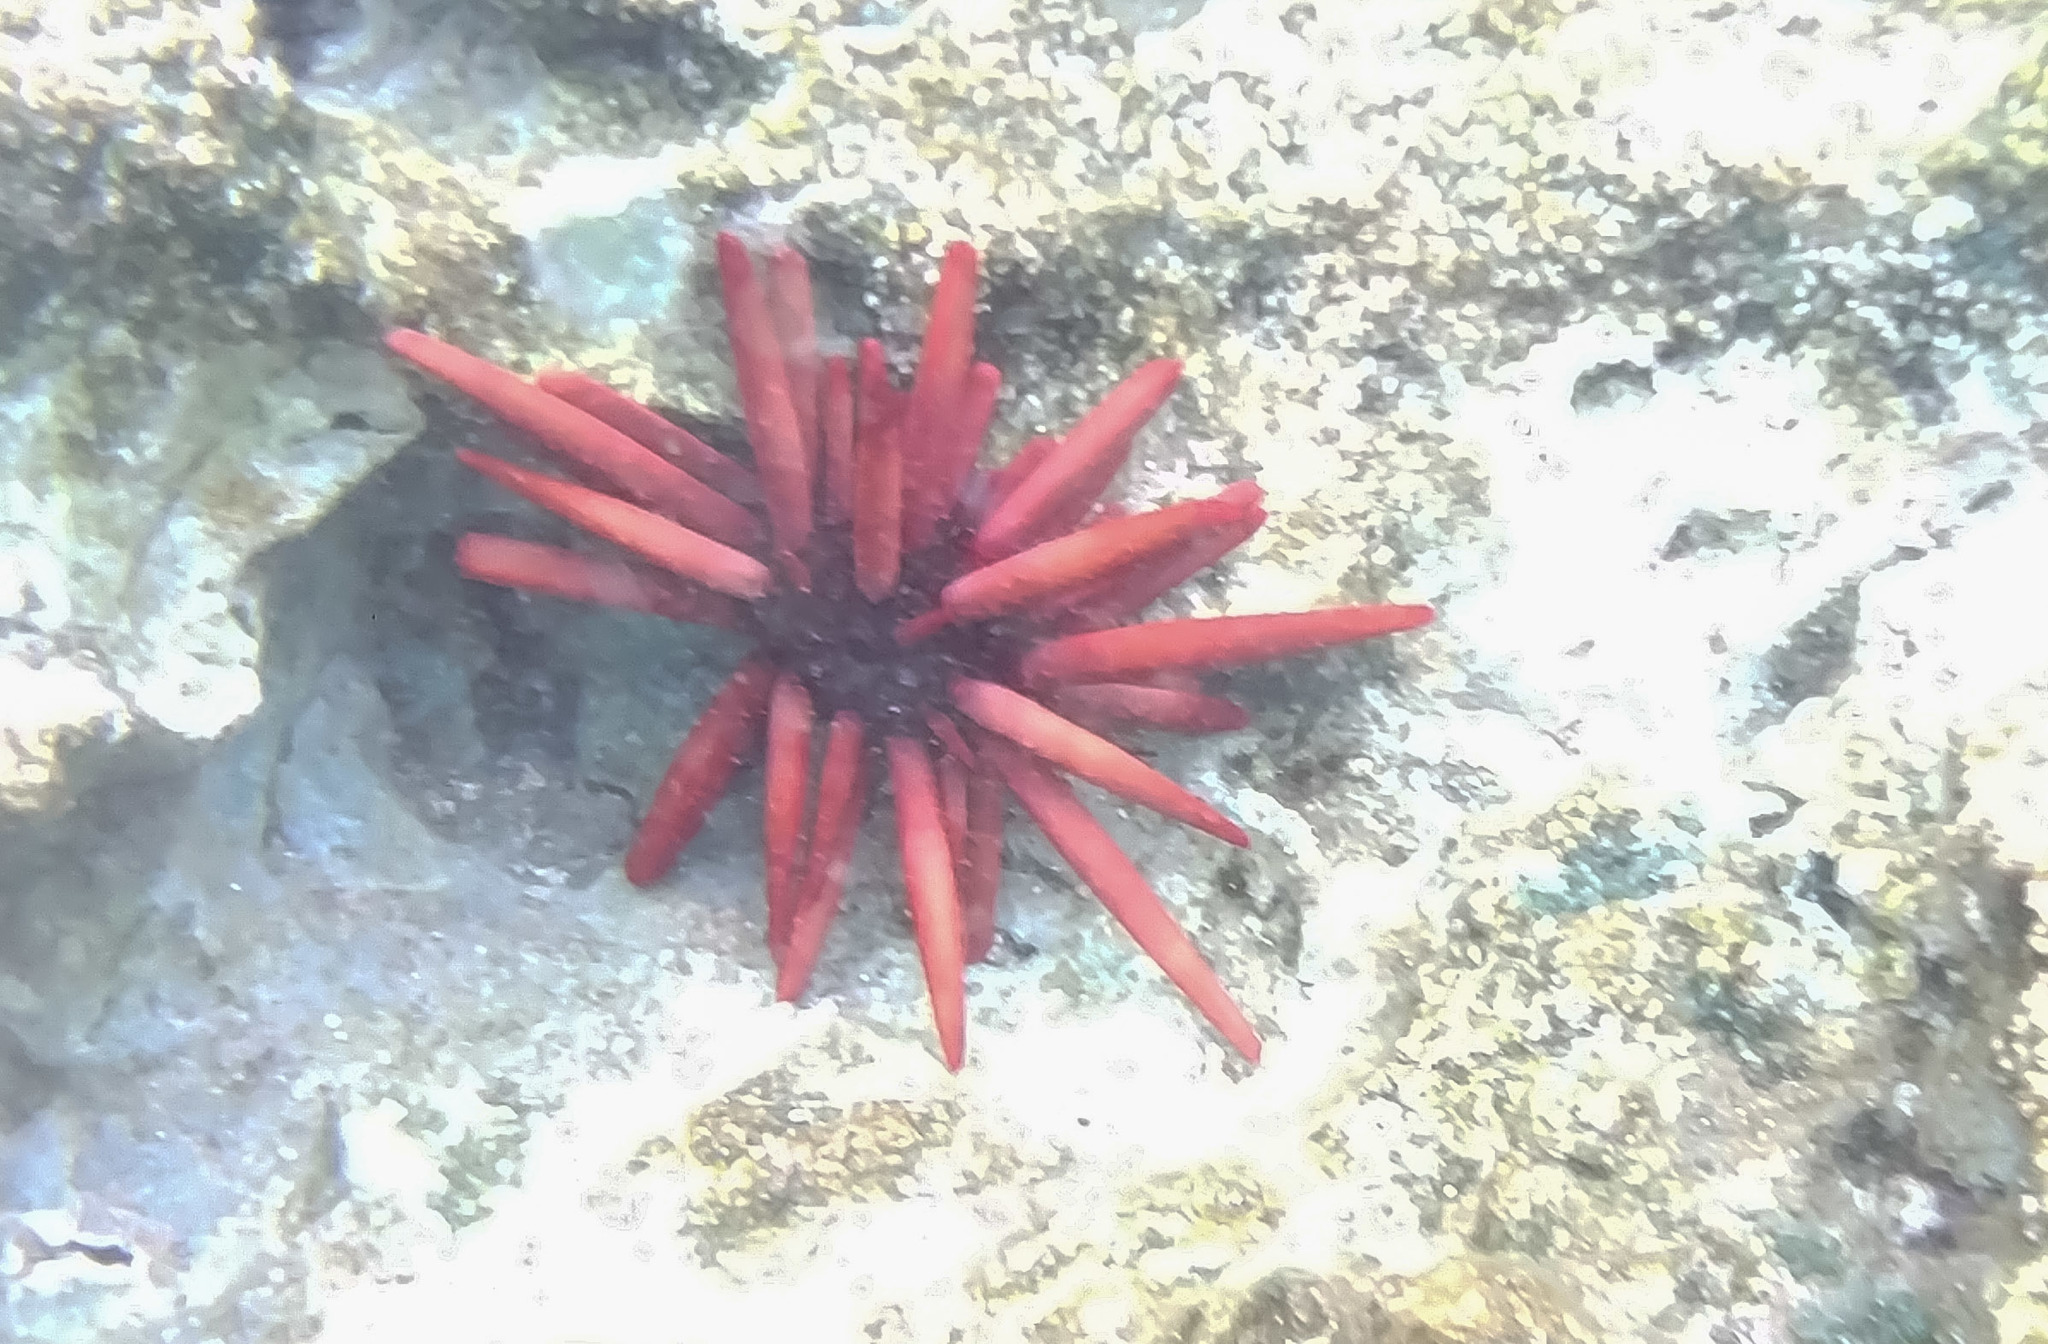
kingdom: Animalia
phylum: Echinodermata
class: Echinoidea
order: Camarodonta
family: Echinometridae
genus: Heterocentrotus
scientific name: Heterocentrotus mamillatus
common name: Slate pencil urchin
